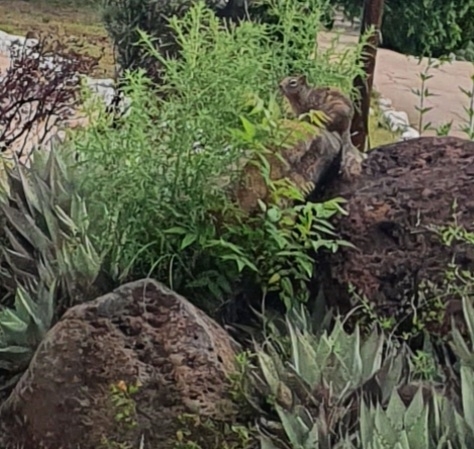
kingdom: Animalia
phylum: Chordata
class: Mammalia
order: Rodentia
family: Sciuridae
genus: Otospermophilus
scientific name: Otospermophilus variegatus
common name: Rock squirrel
